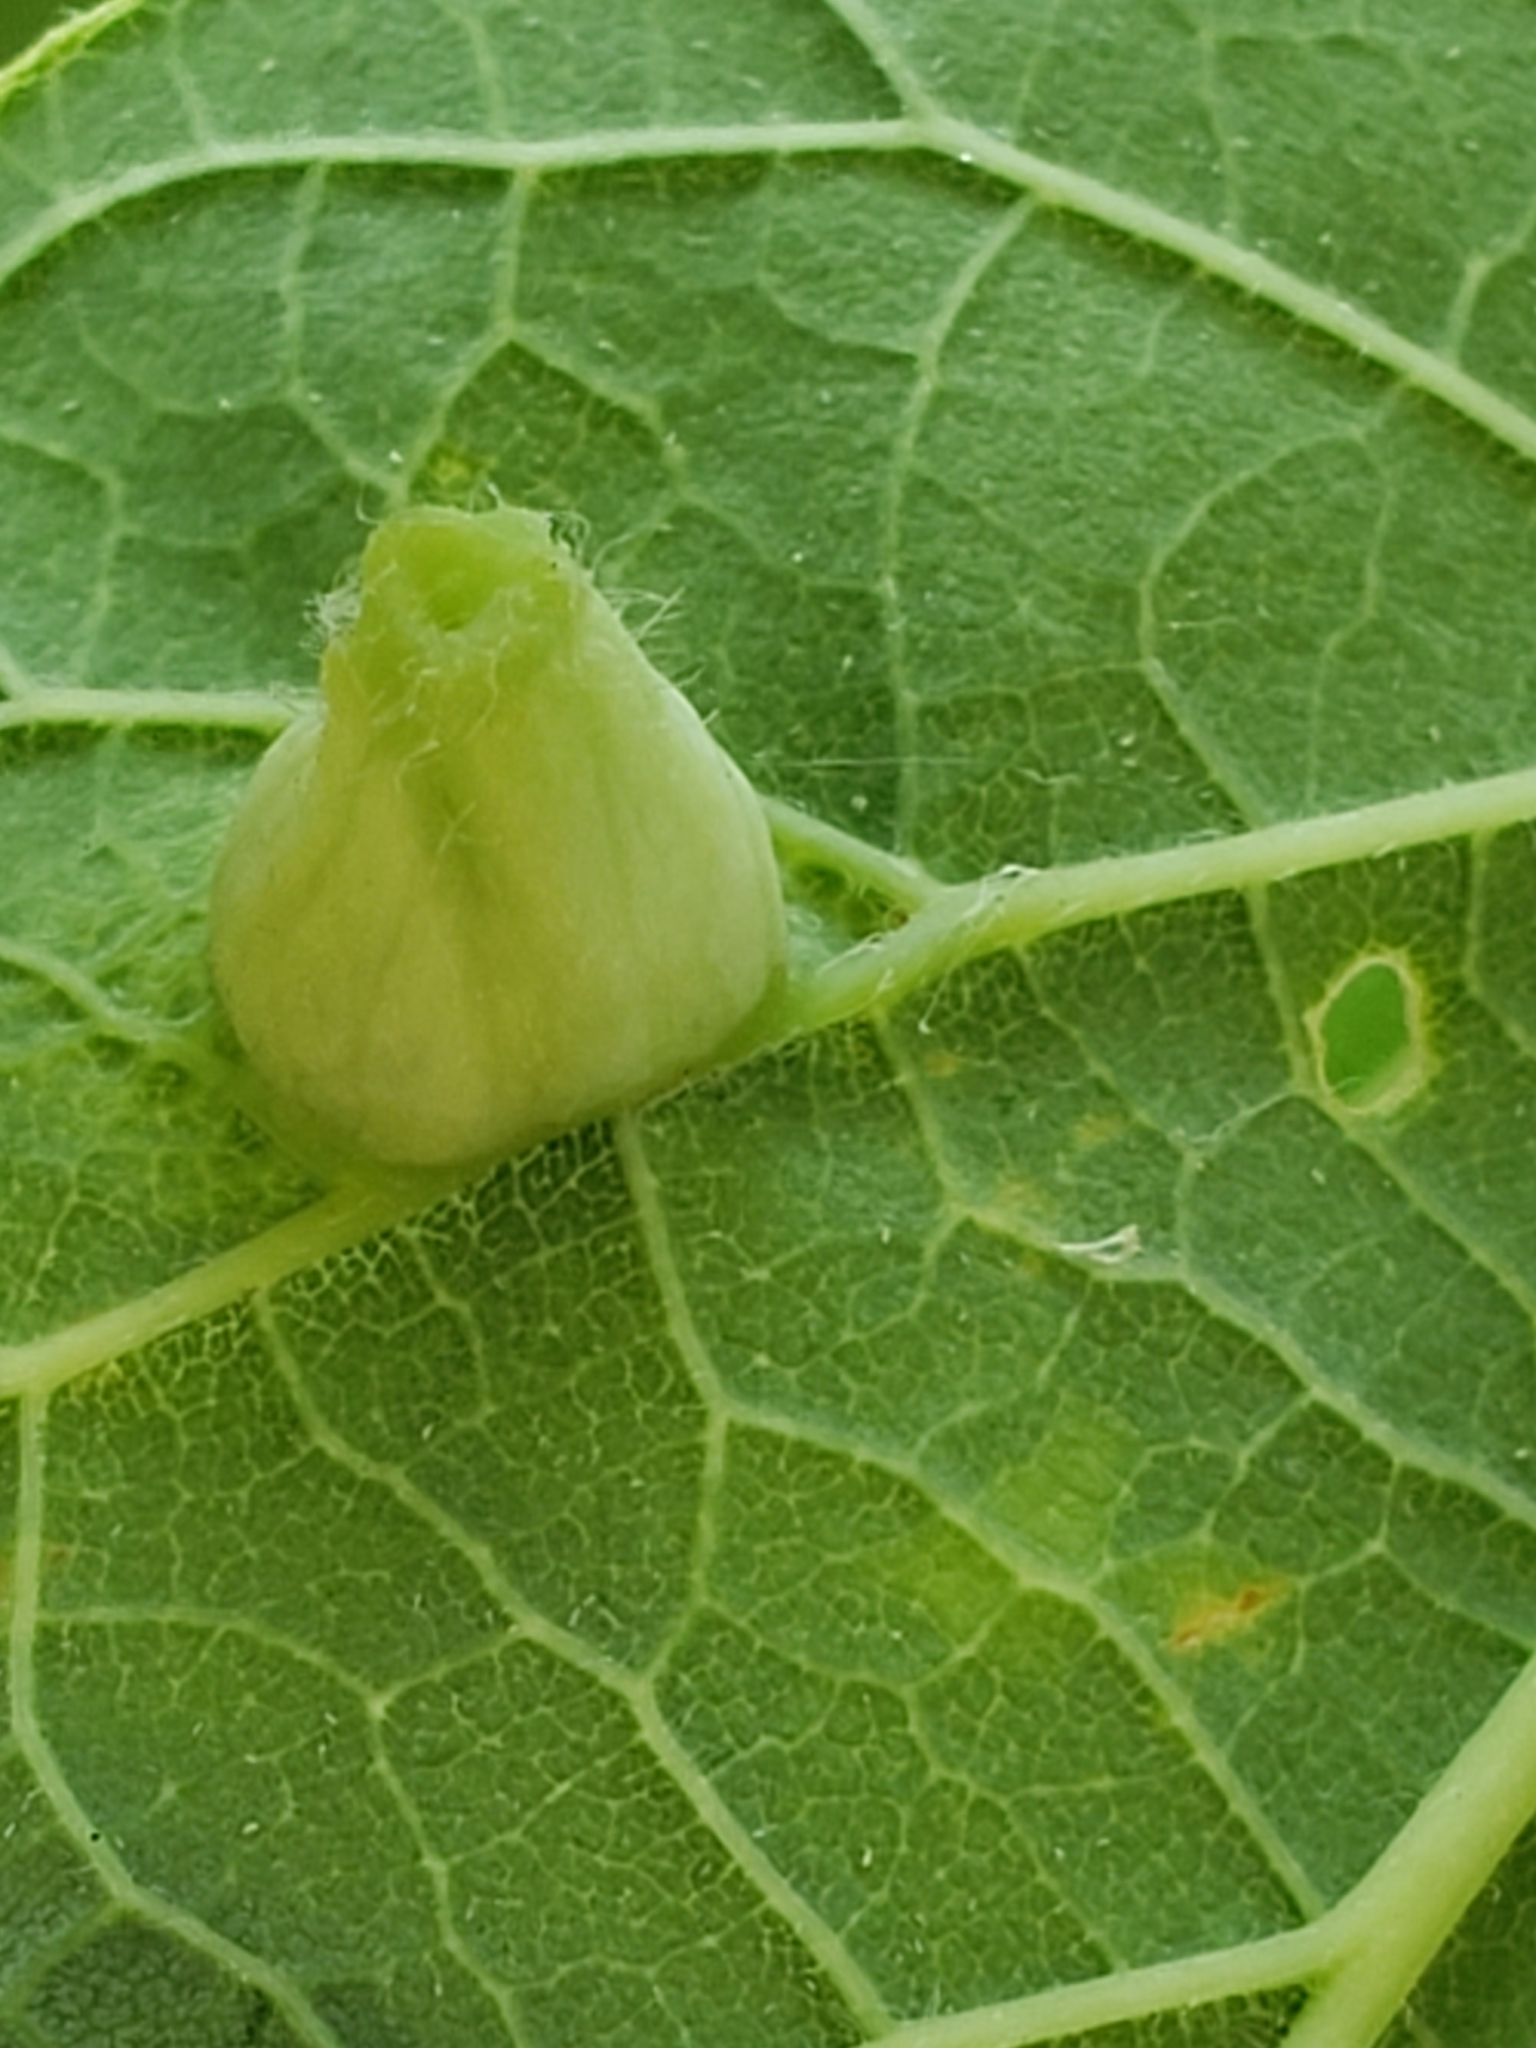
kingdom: Animalia
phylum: Arthropoda
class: Insecta
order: Hemiptera
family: Aphalaridae
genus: Pachypsylla
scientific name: Pachypsylla celtidismamma
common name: Hackberry nipplegall psyllid
